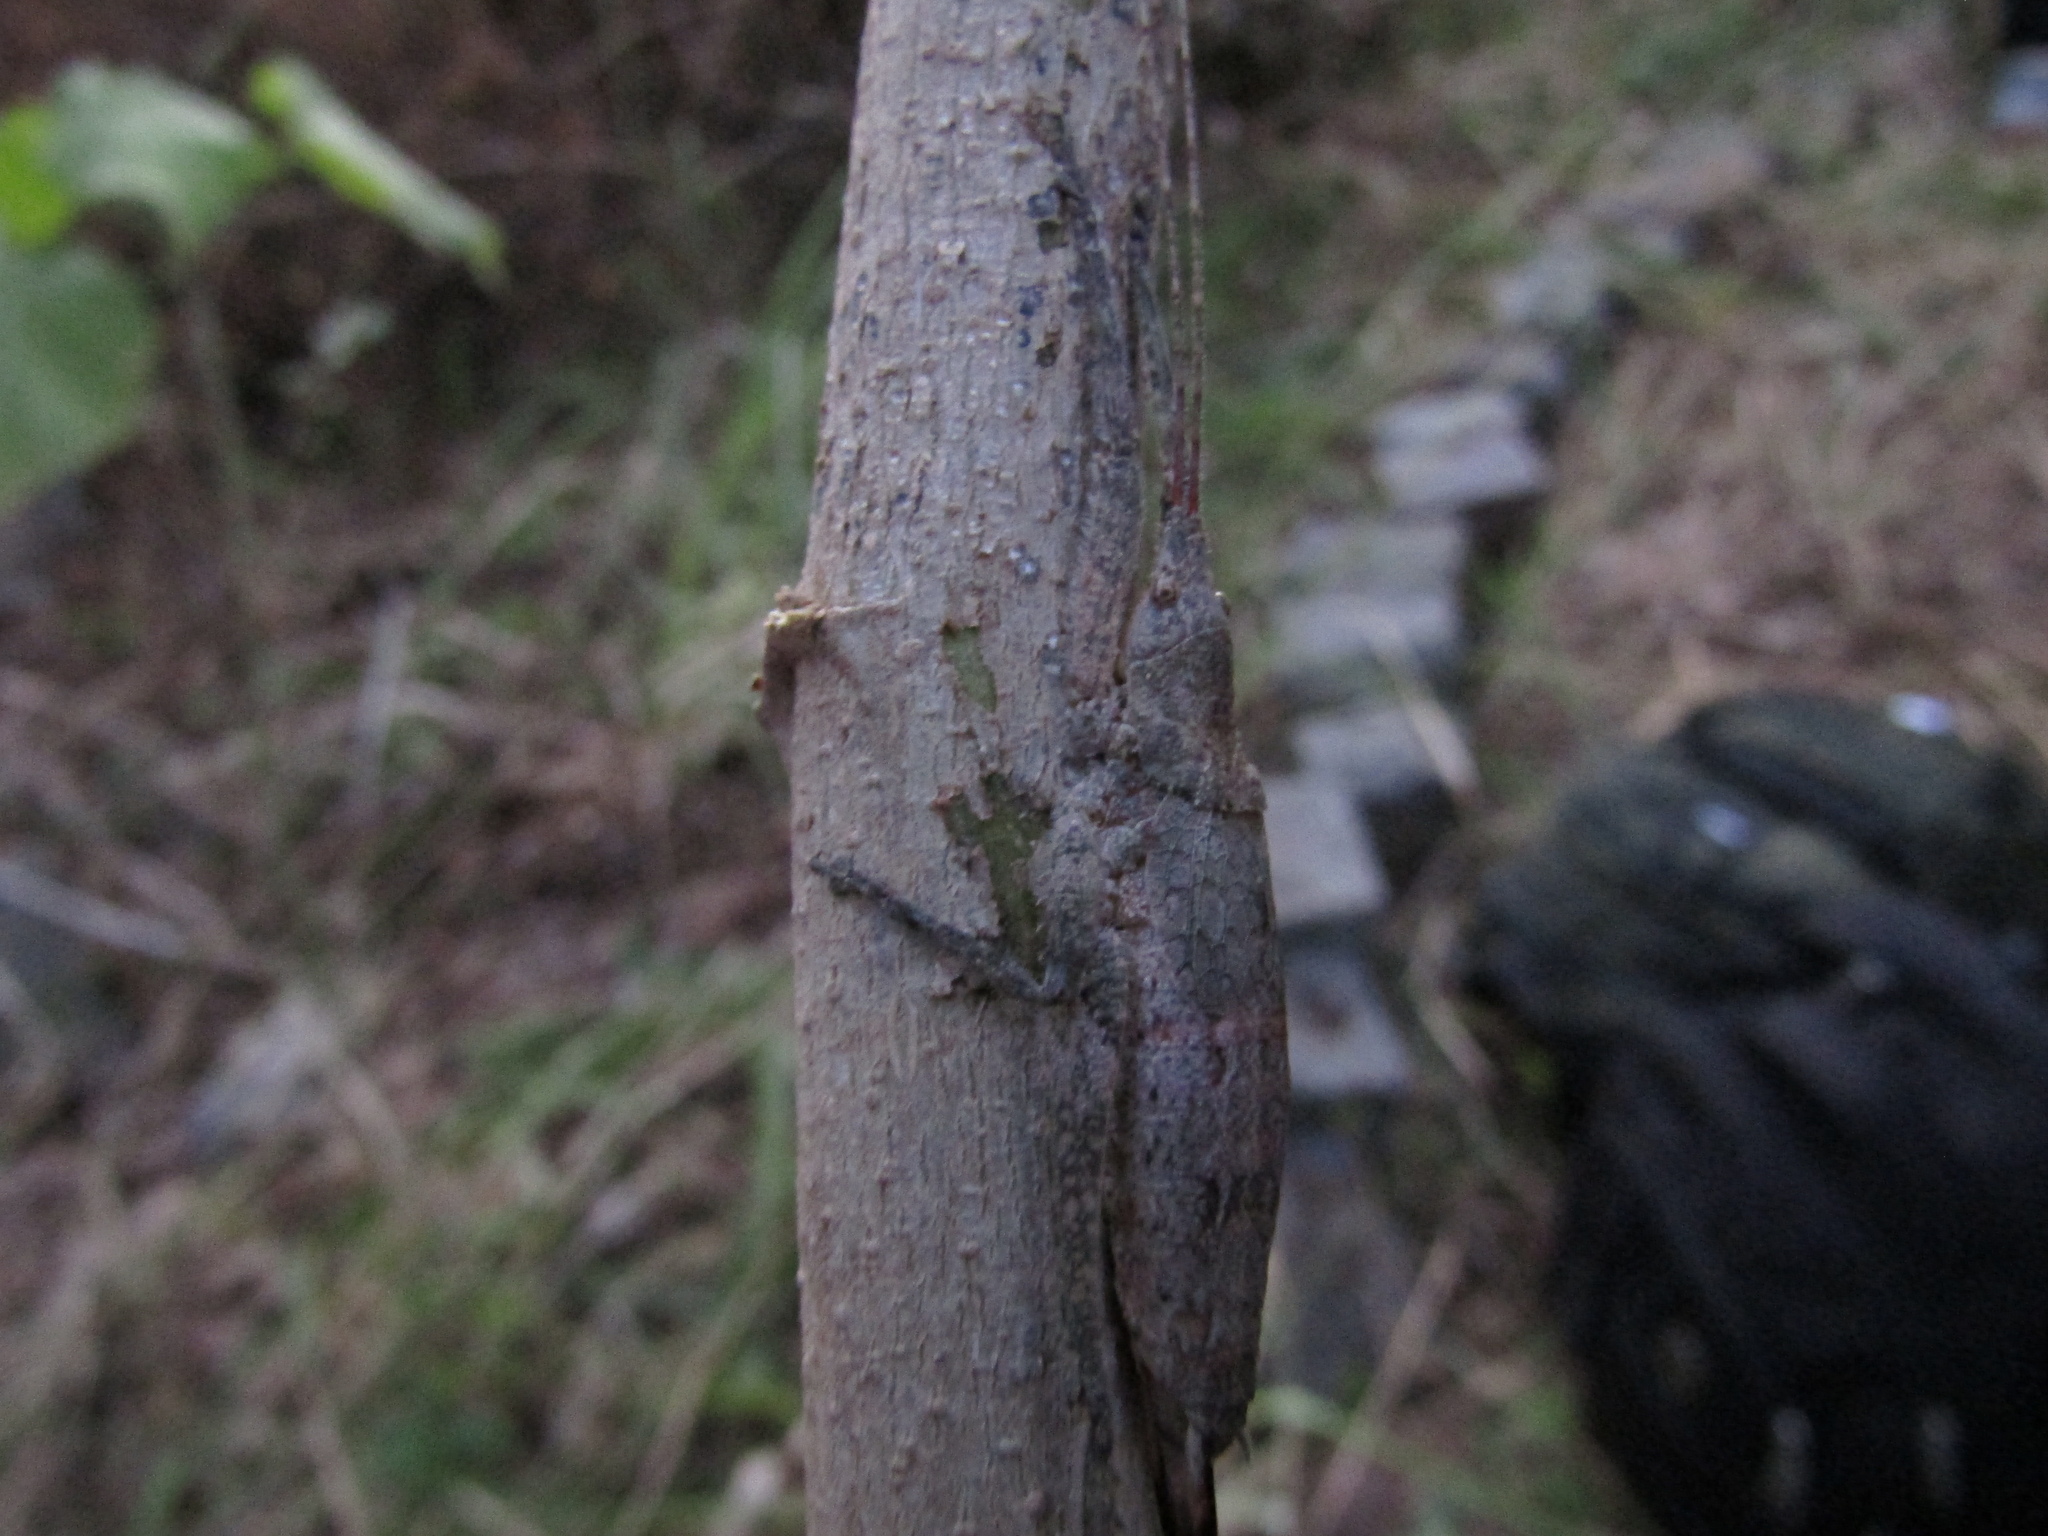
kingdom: Animalia
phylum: Arthropoda
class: Insecta
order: Orthoptera
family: Tettigoniidae
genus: Dasyscelus
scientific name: Dasyscelus normalis
